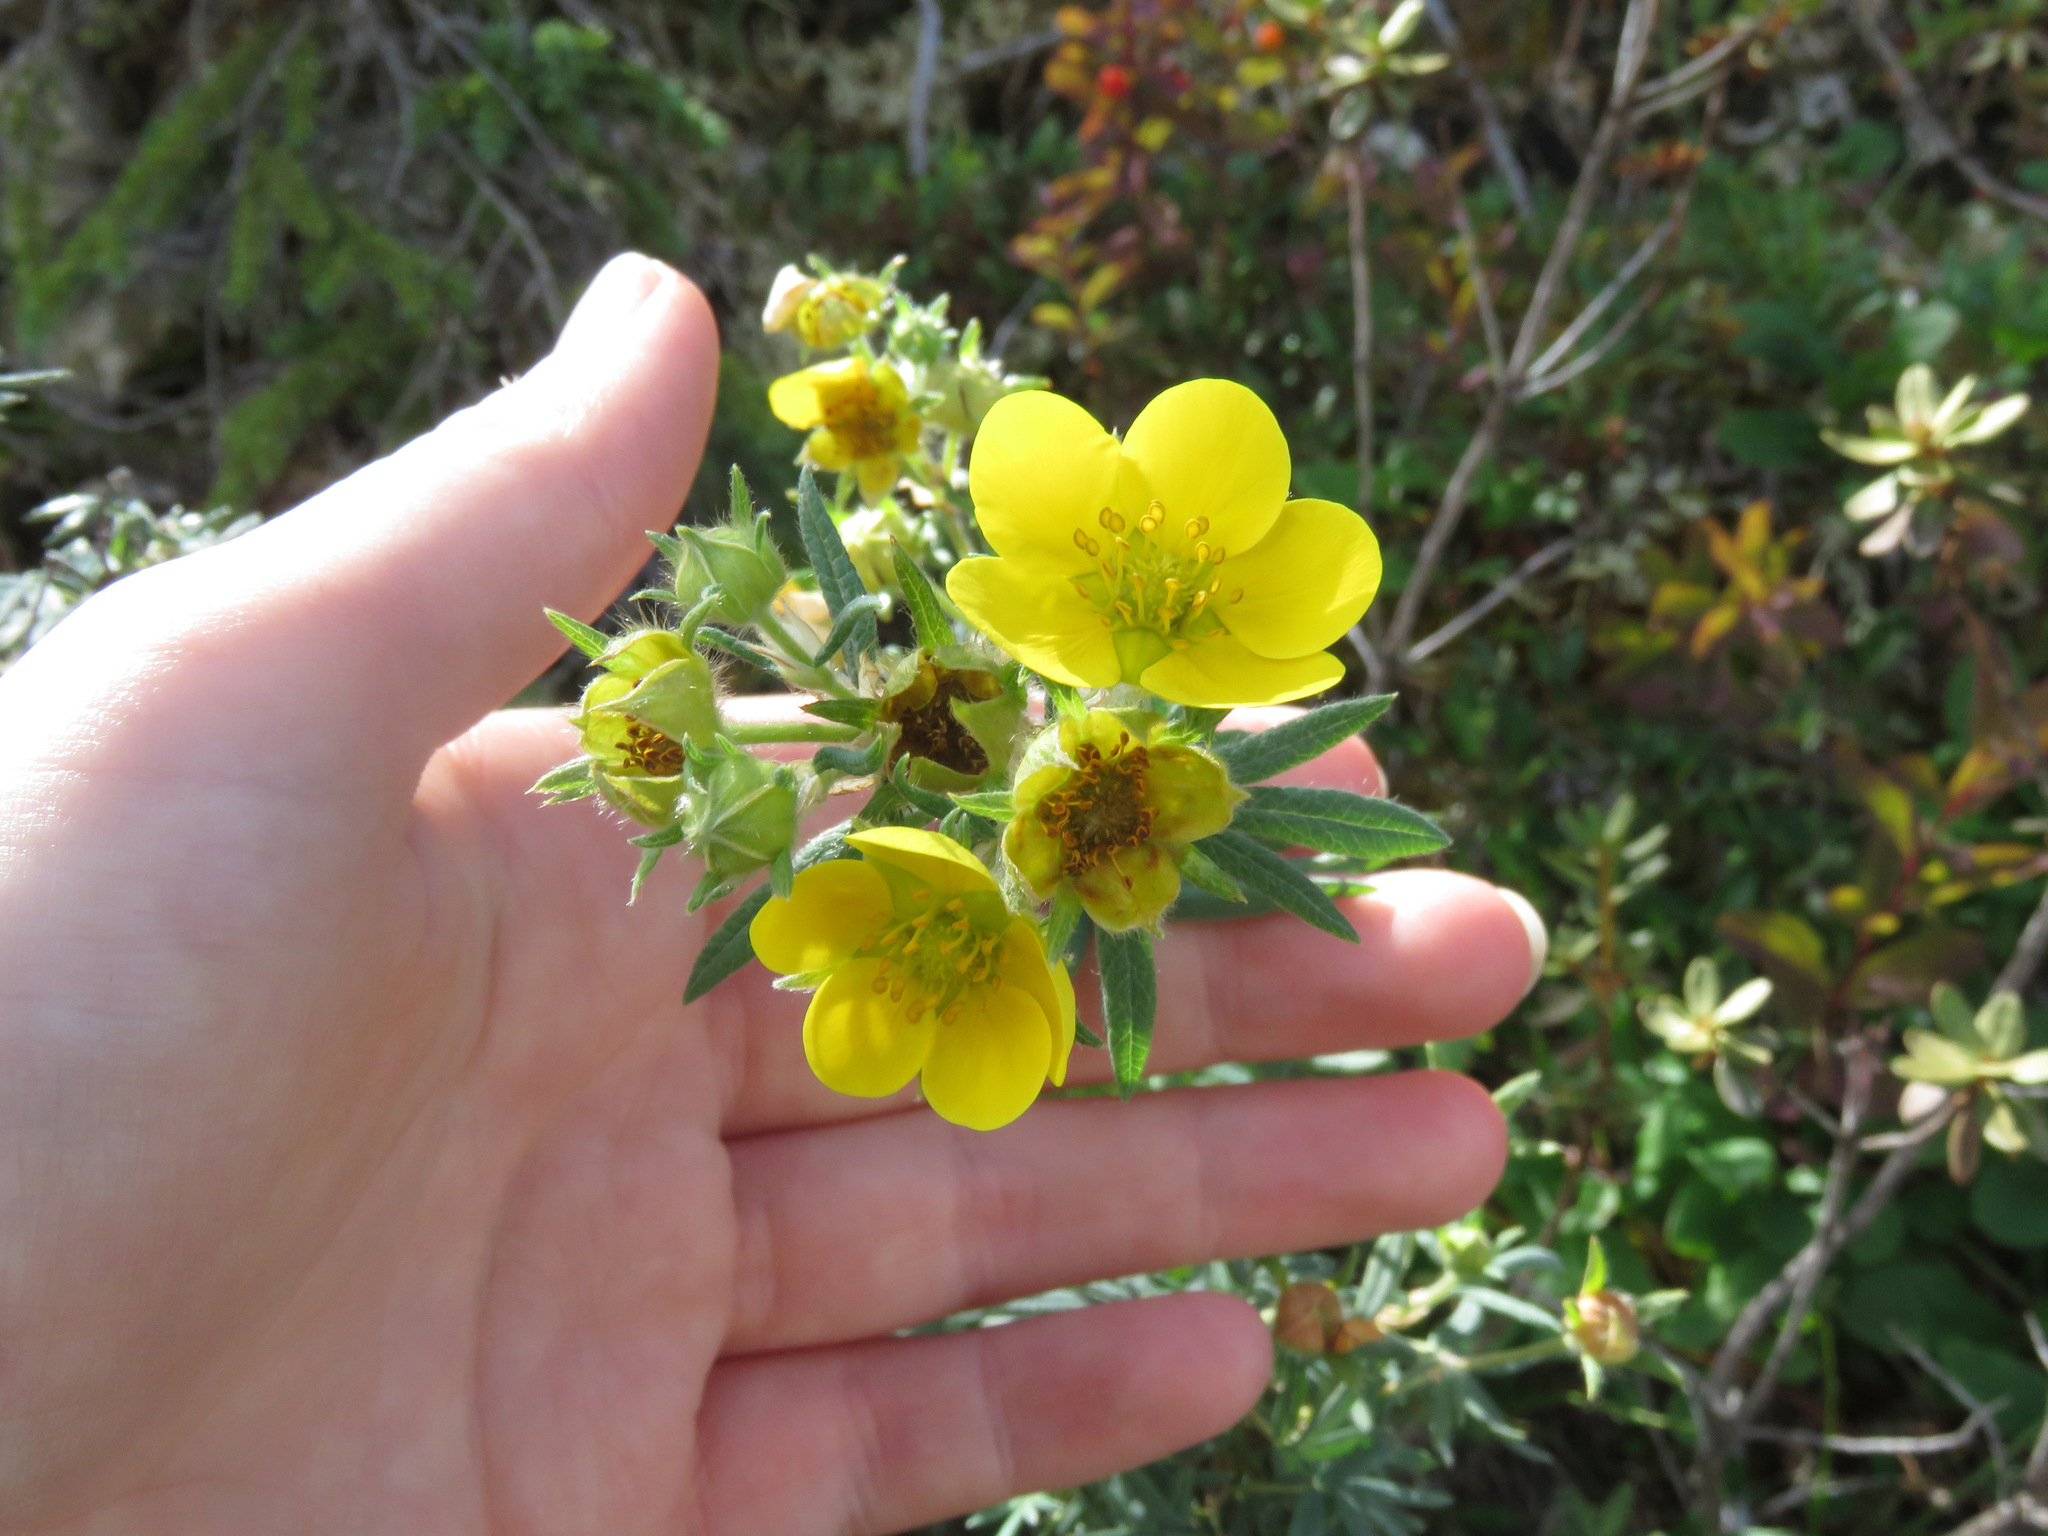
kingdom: Plantae
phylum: Tracheophyta
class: Magnoliopsida
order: Rosales
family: Rosaceae
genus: Dasiphora
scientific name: Dasiphora fruticosa
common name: Shrubby cinquefoil
